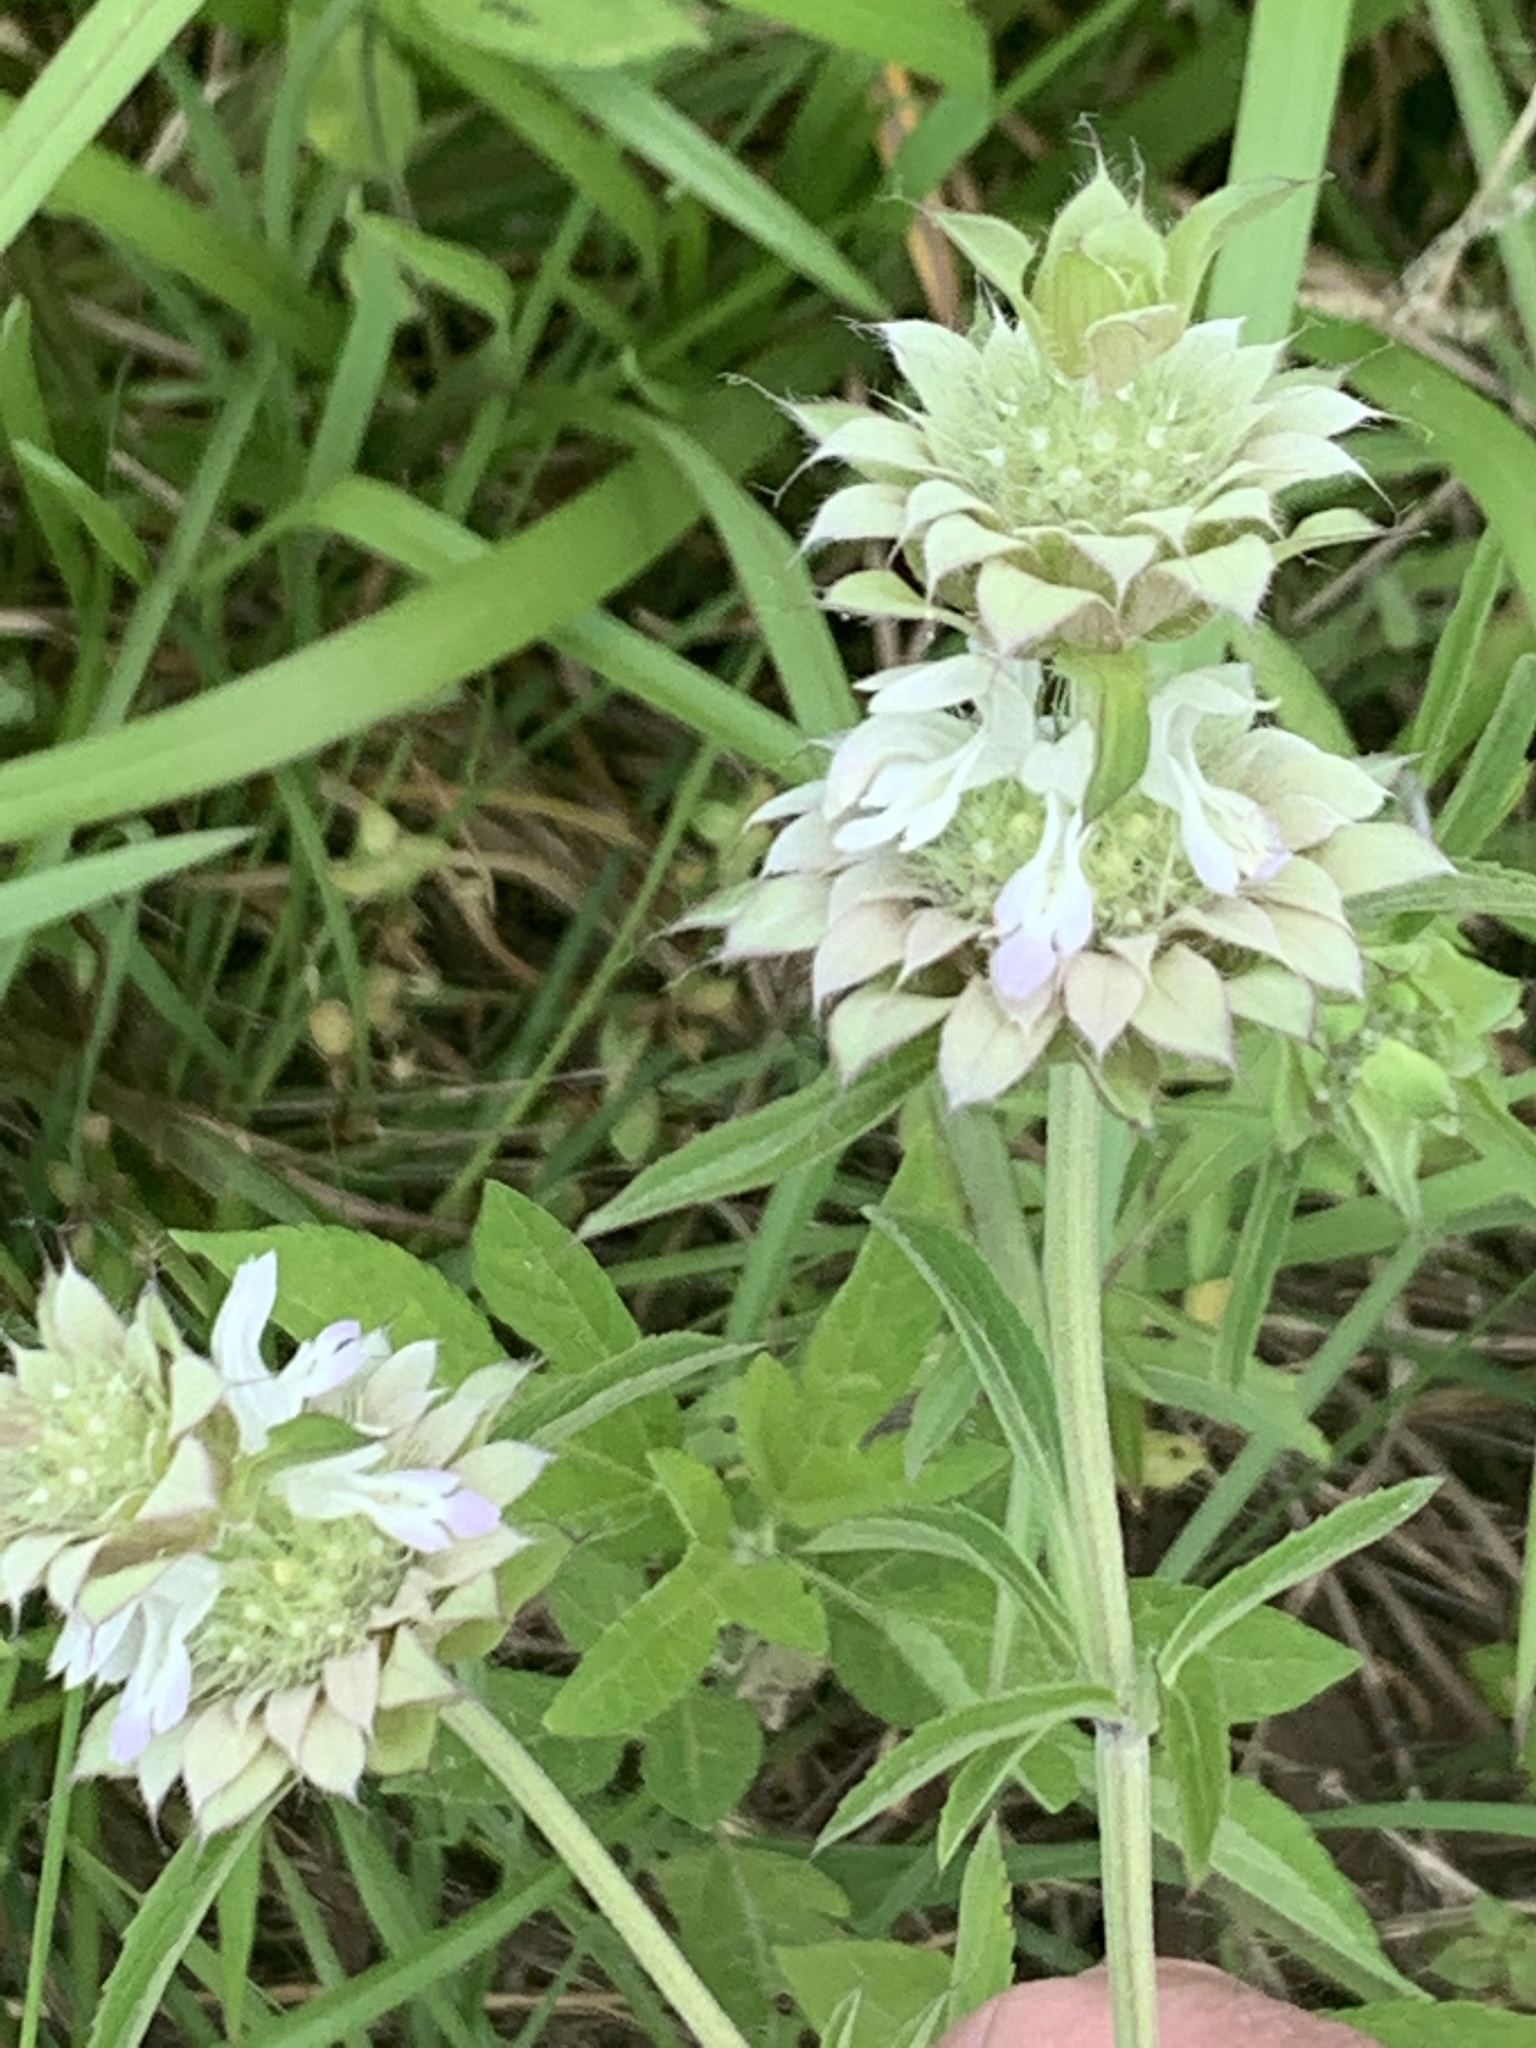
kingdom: Plantae
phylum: Tracheophyta
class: Magnoliopsida
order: Lamiales
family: Lamiaceae
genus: Monarda
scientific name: Monarda citriodora
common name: Lemon beebalm
